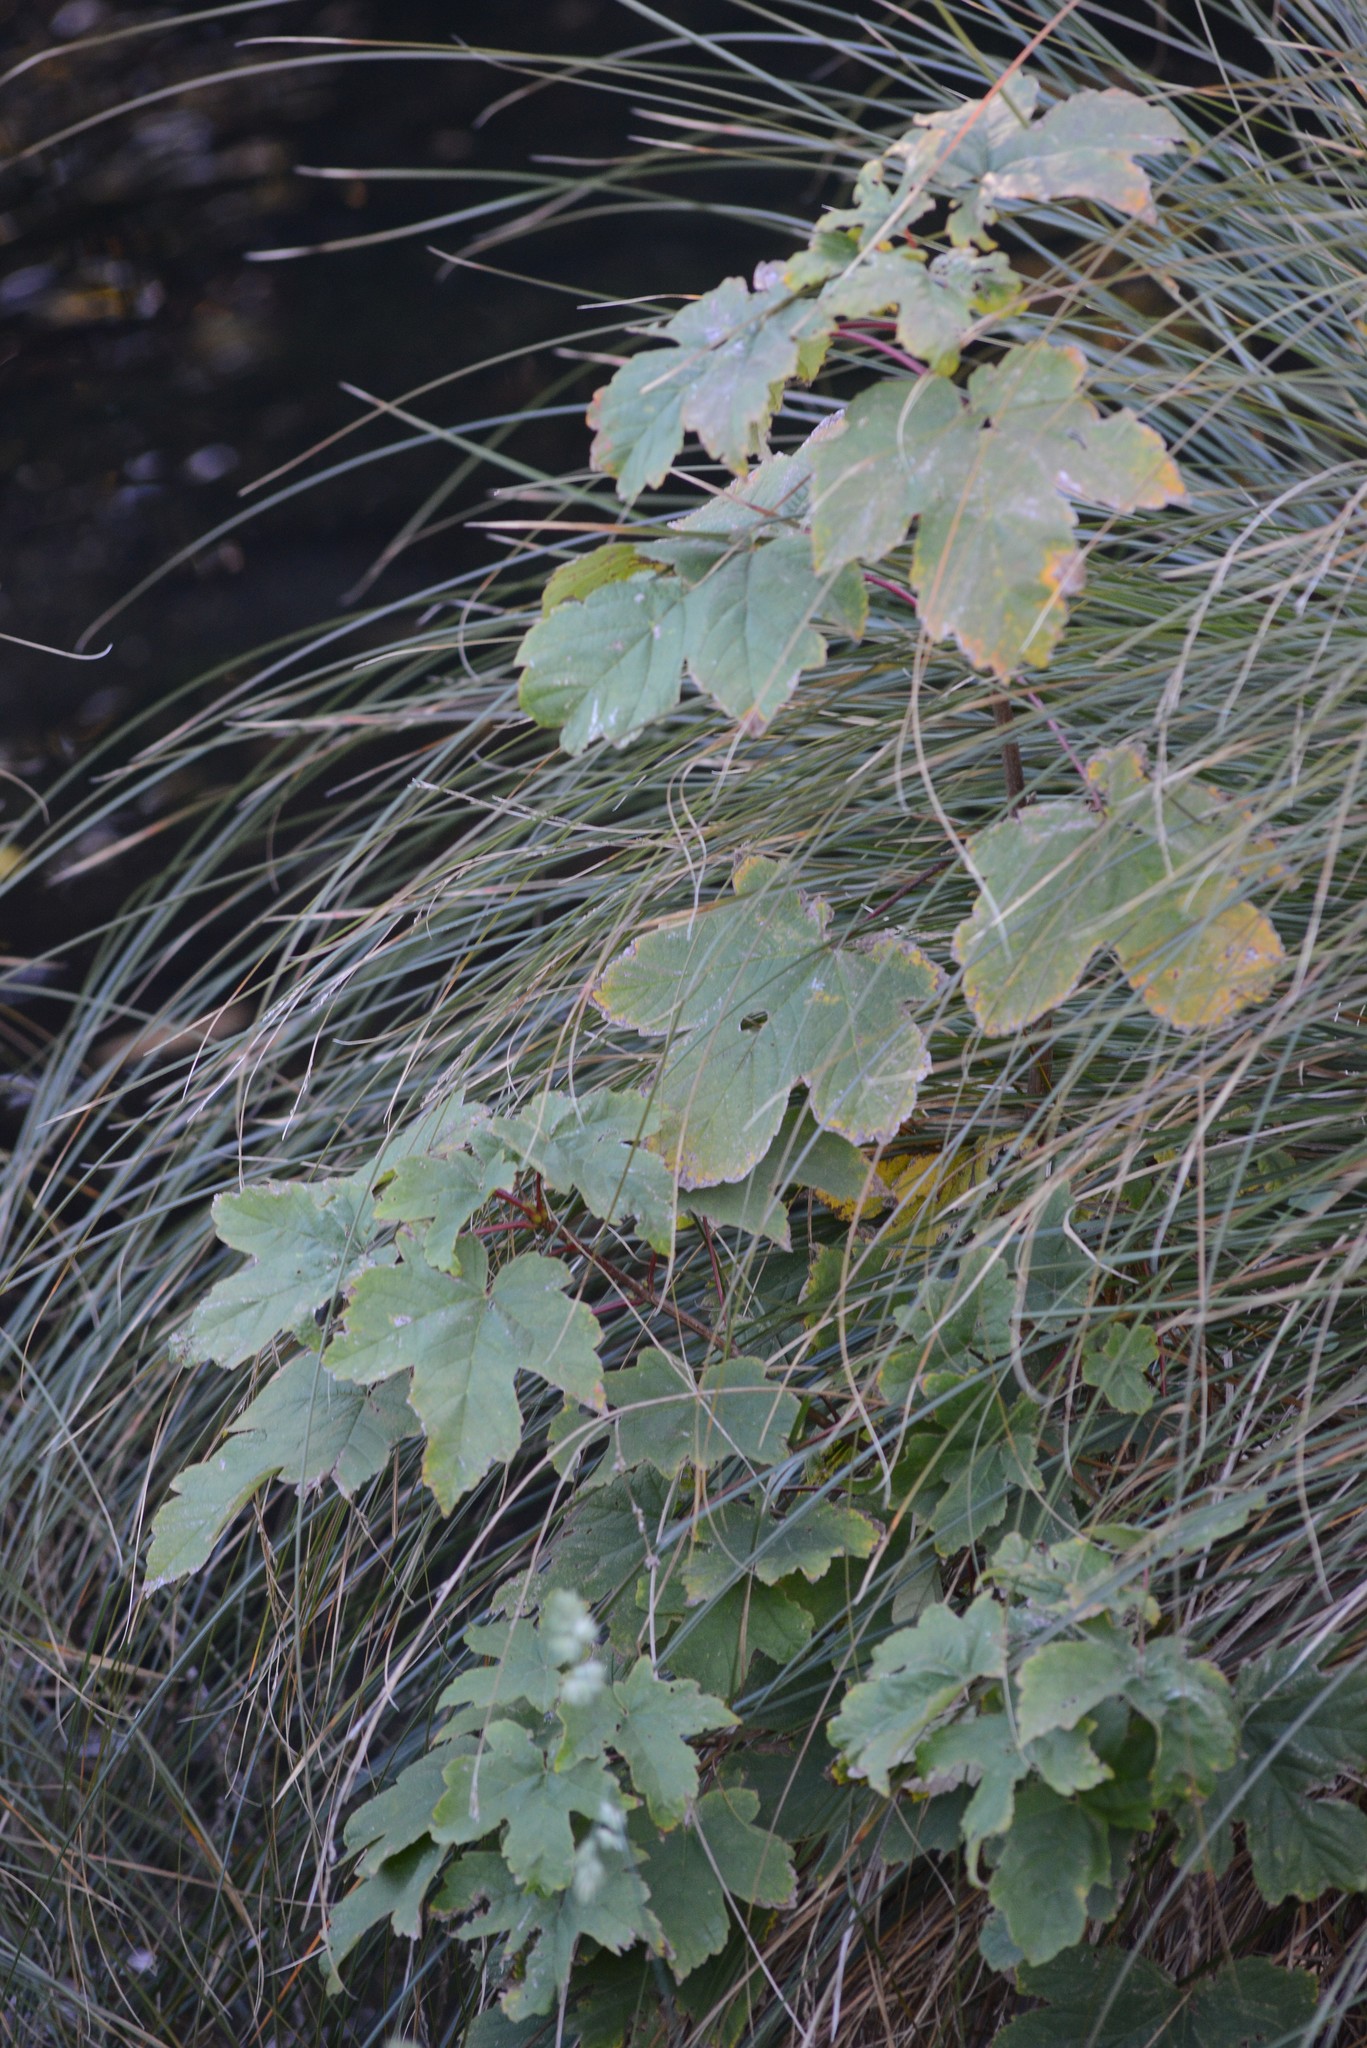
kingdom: Plantae
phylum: Tracheophyta
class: Magnoliopsida
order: Sapindales
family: Sapindaceae
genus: Acer
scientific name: Acer pseudoplatanus
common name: Sycamore
